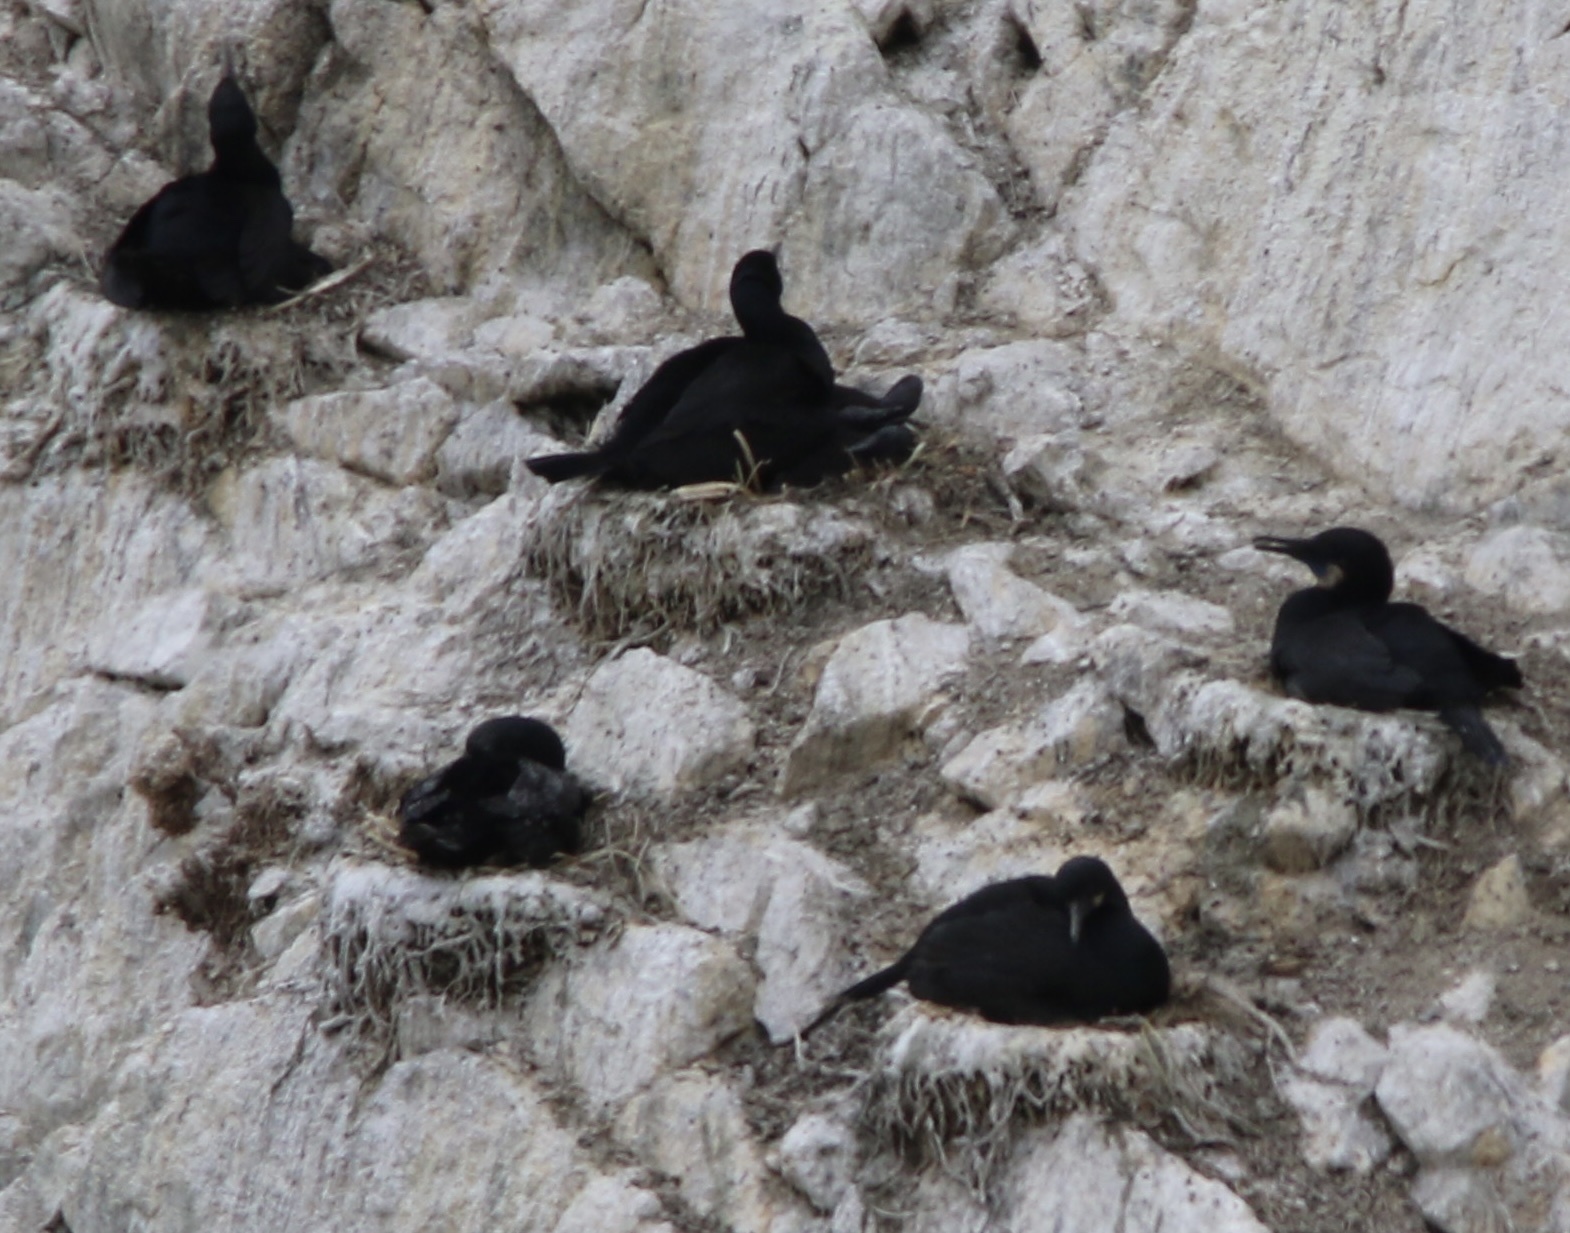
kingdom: Animalia
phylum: Chordata
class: Aves
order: Suliformes
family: Phalacrocoracidae
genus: Urile
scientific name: Urile penicillatus
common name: Brandt's cormorant
